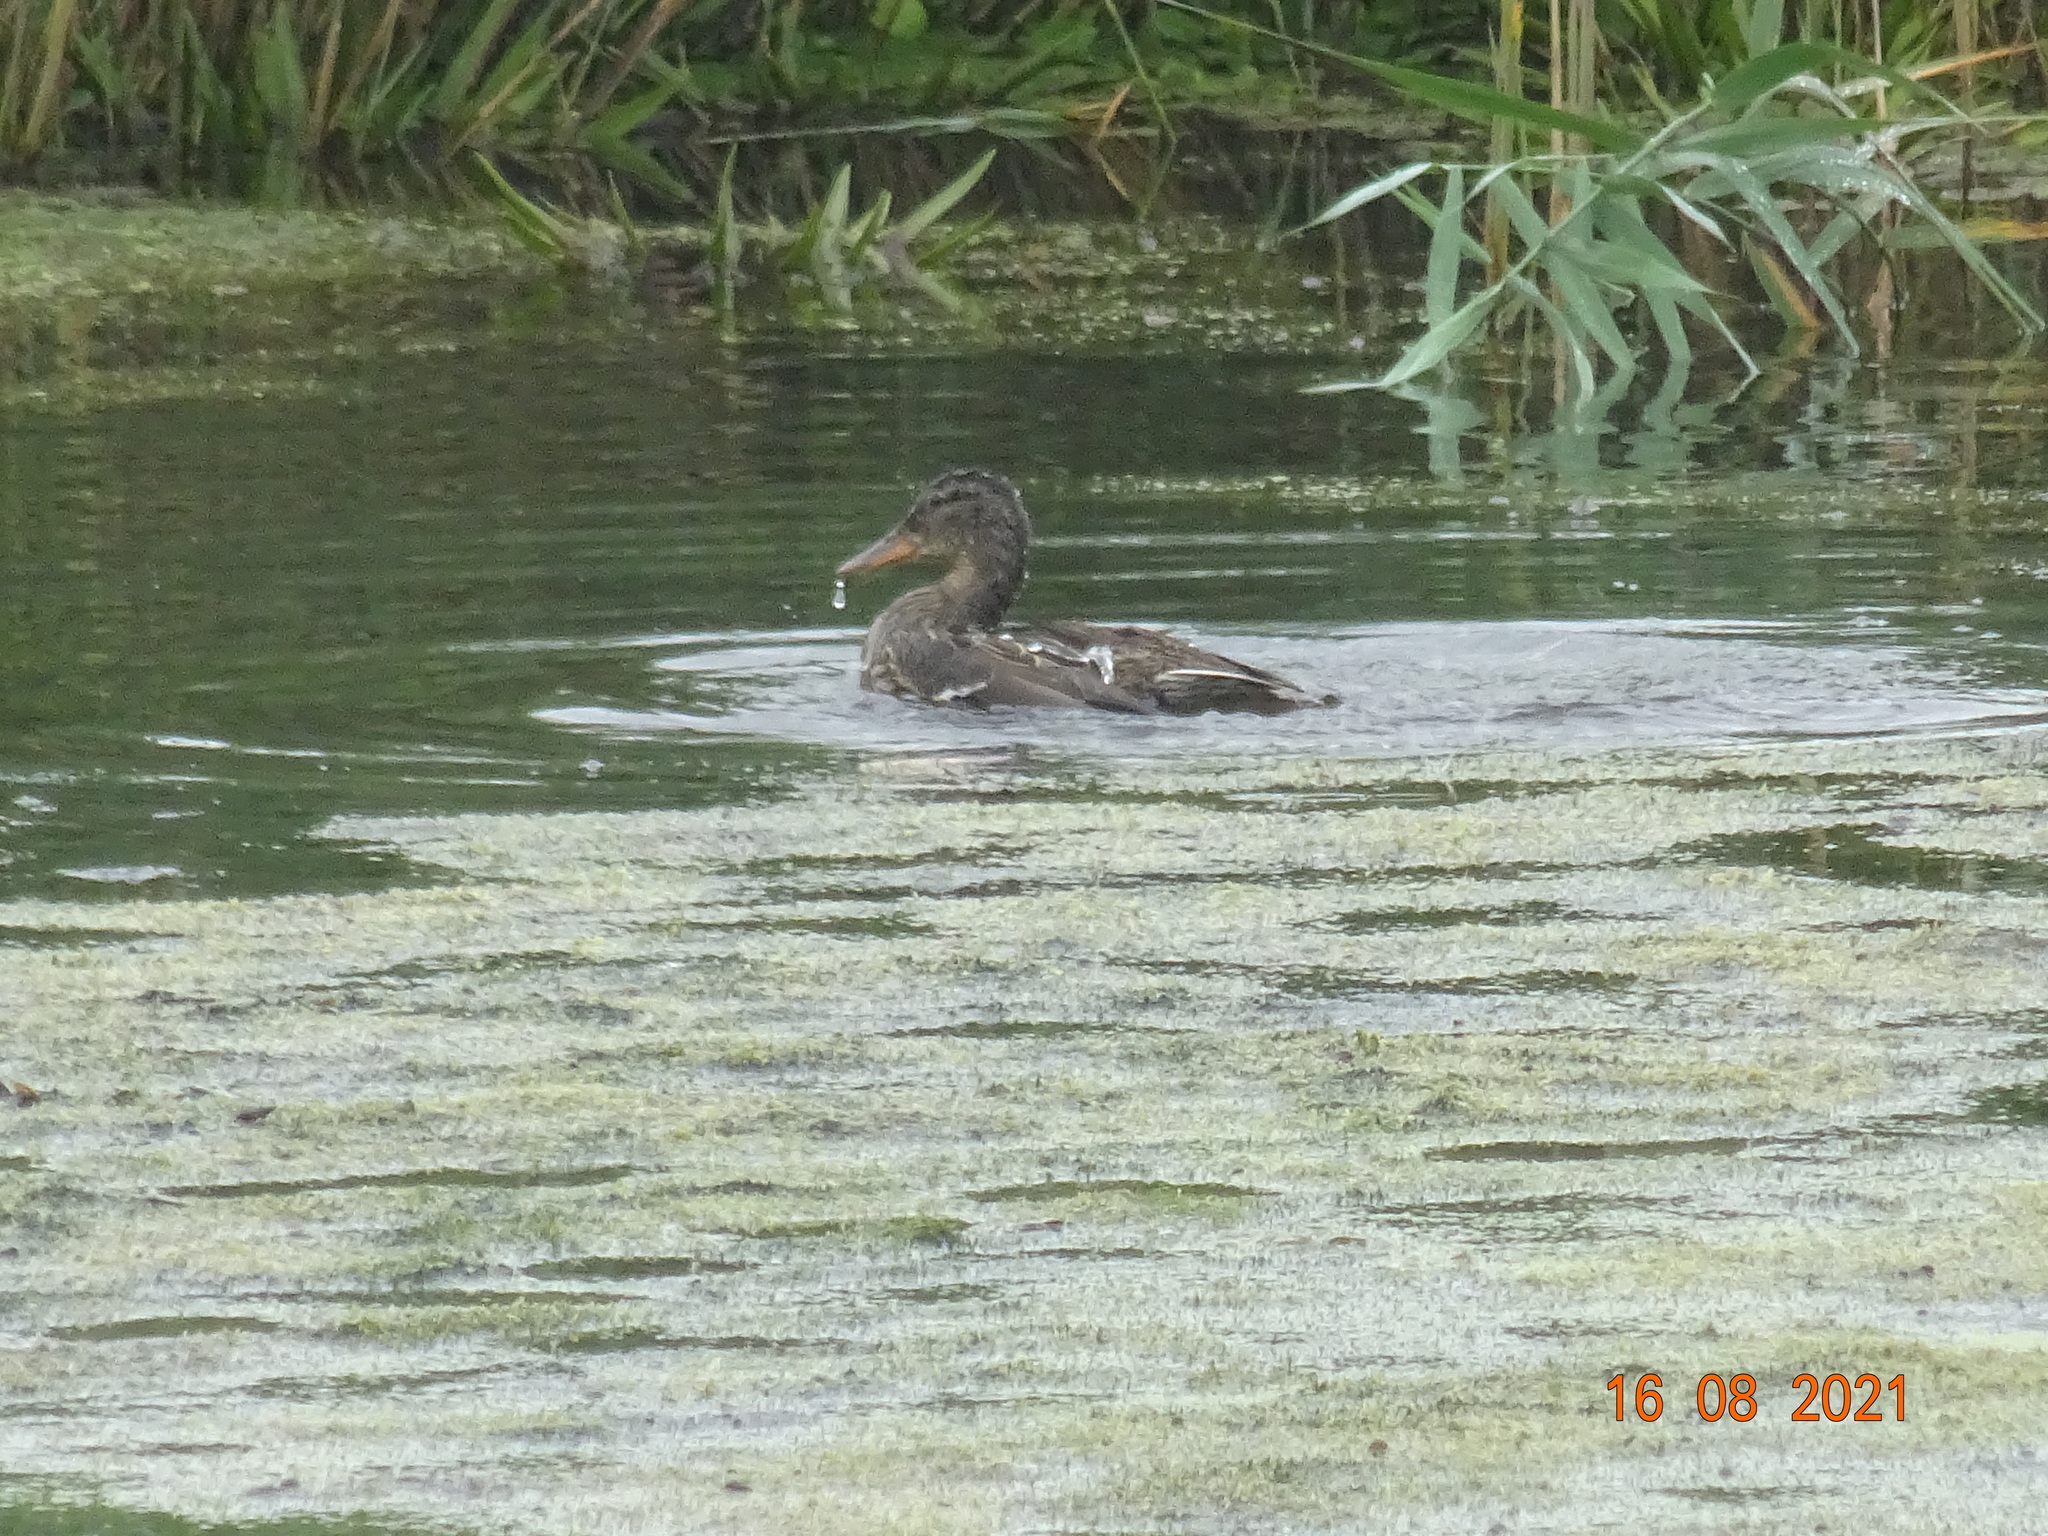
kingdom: Animalia
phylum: Chordata
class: Aves
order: Anseriformes
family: Anatidae
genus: Anas
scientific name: Anas platyrhynchos
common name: Mallard
